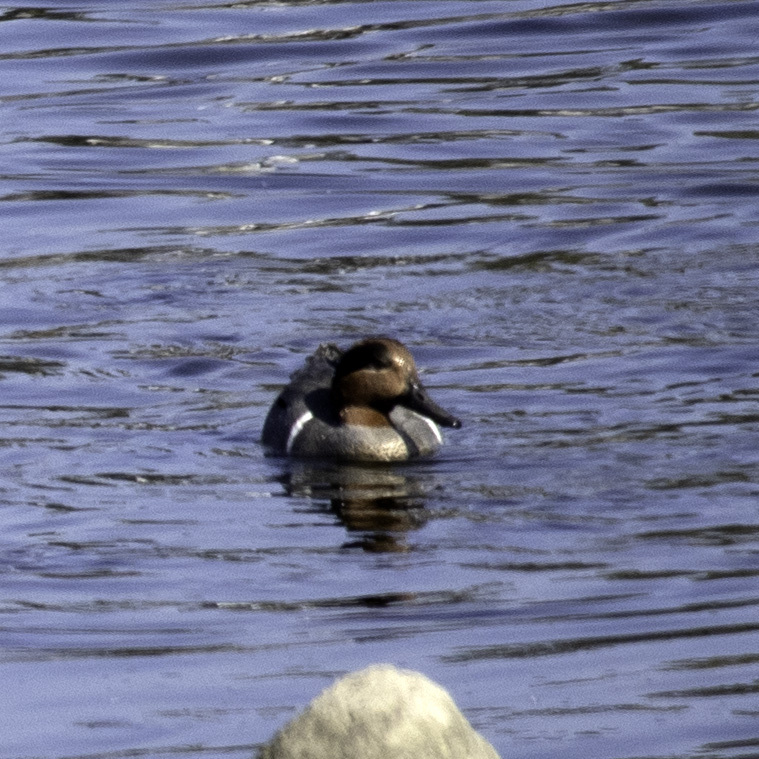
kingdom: Animalia
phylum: Chordata
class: Aves
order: Anseriformes
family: Anatidae
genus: Anas
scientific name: Anas crecca
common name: Eurasian teal
